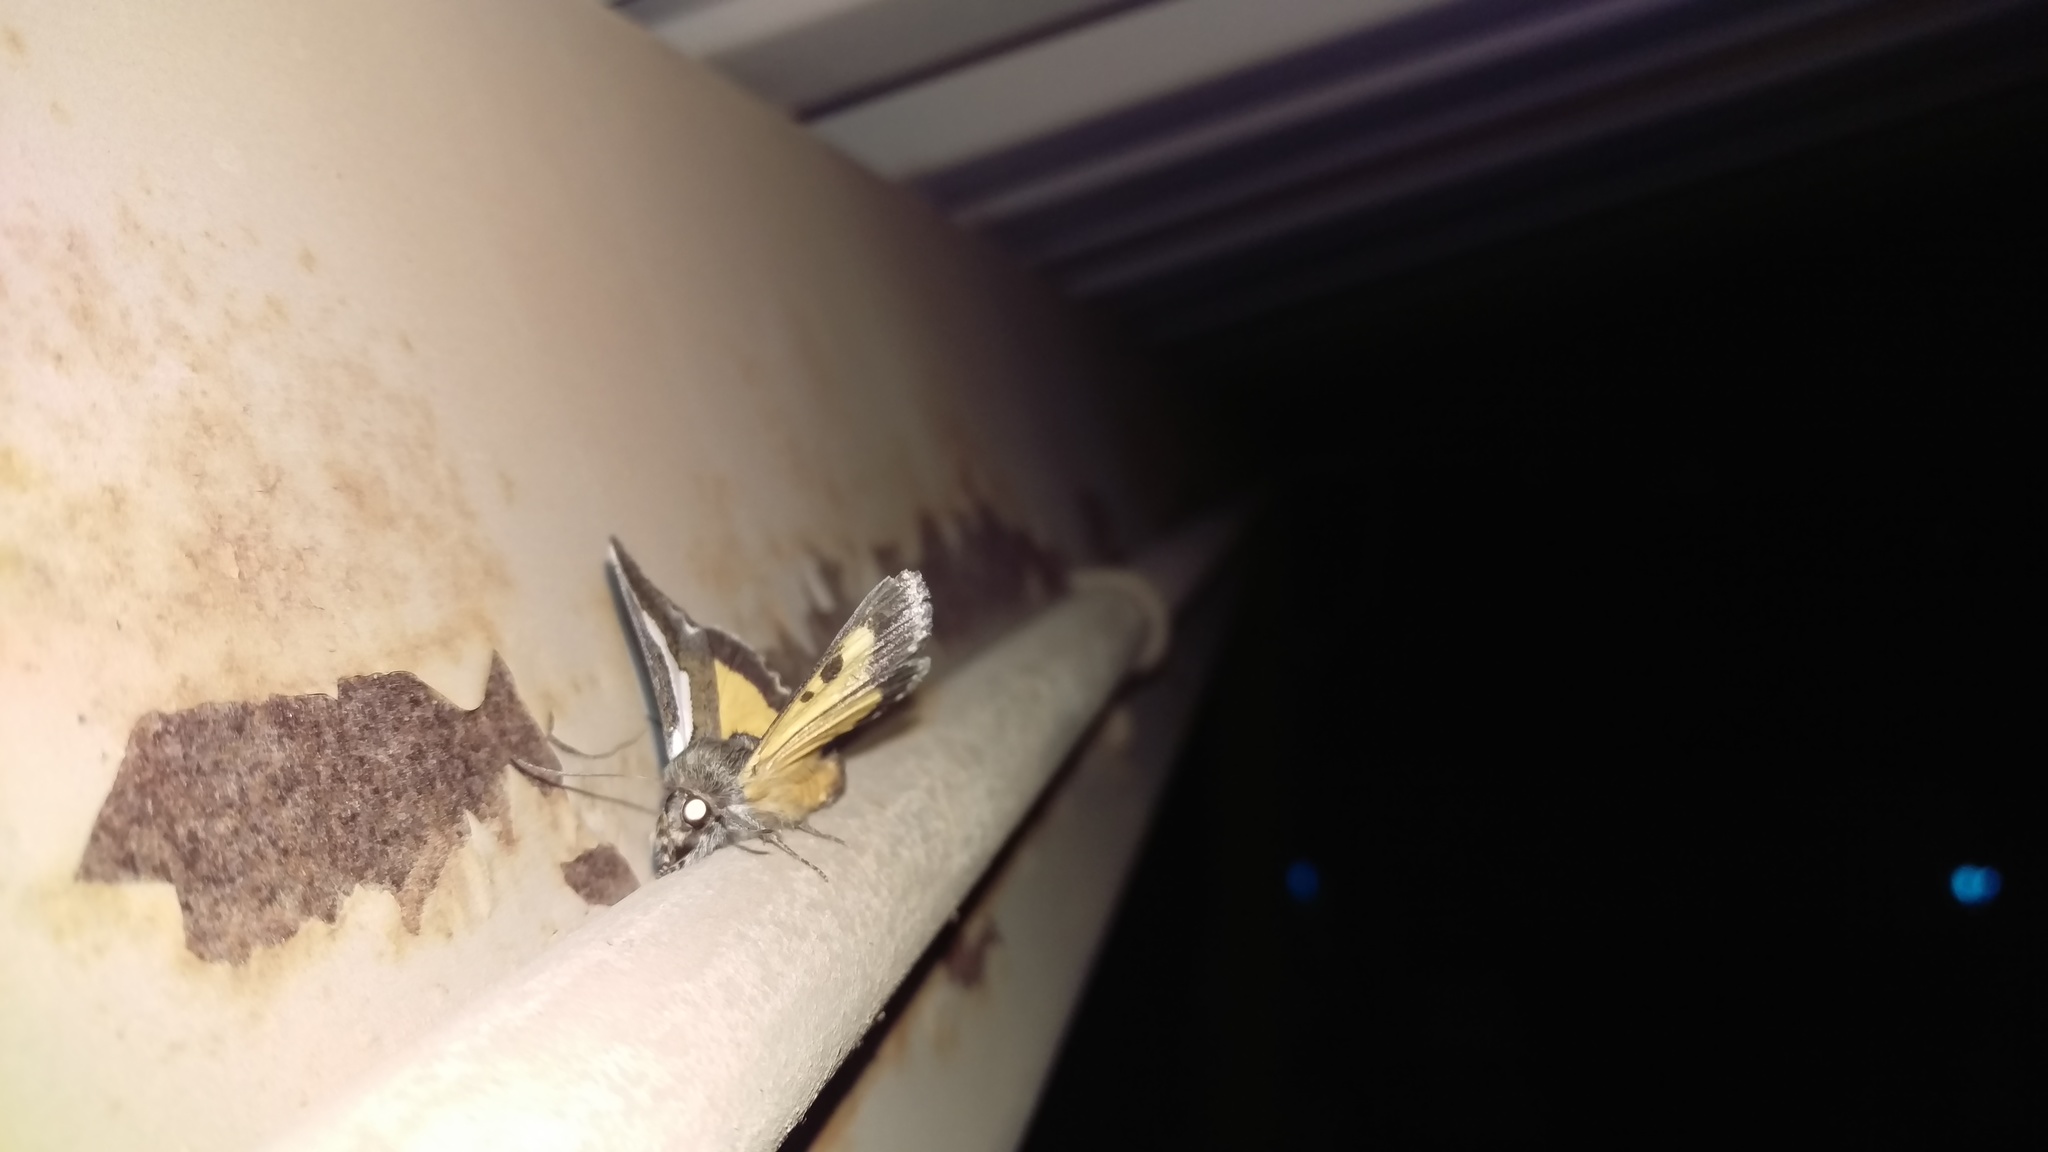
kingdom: Animalia
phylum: Arthropoda
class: Insecta
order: Lepidoptera
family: Noctuidae
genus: Euscirrhopterus
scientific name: Euscirrhopterus cosyra
